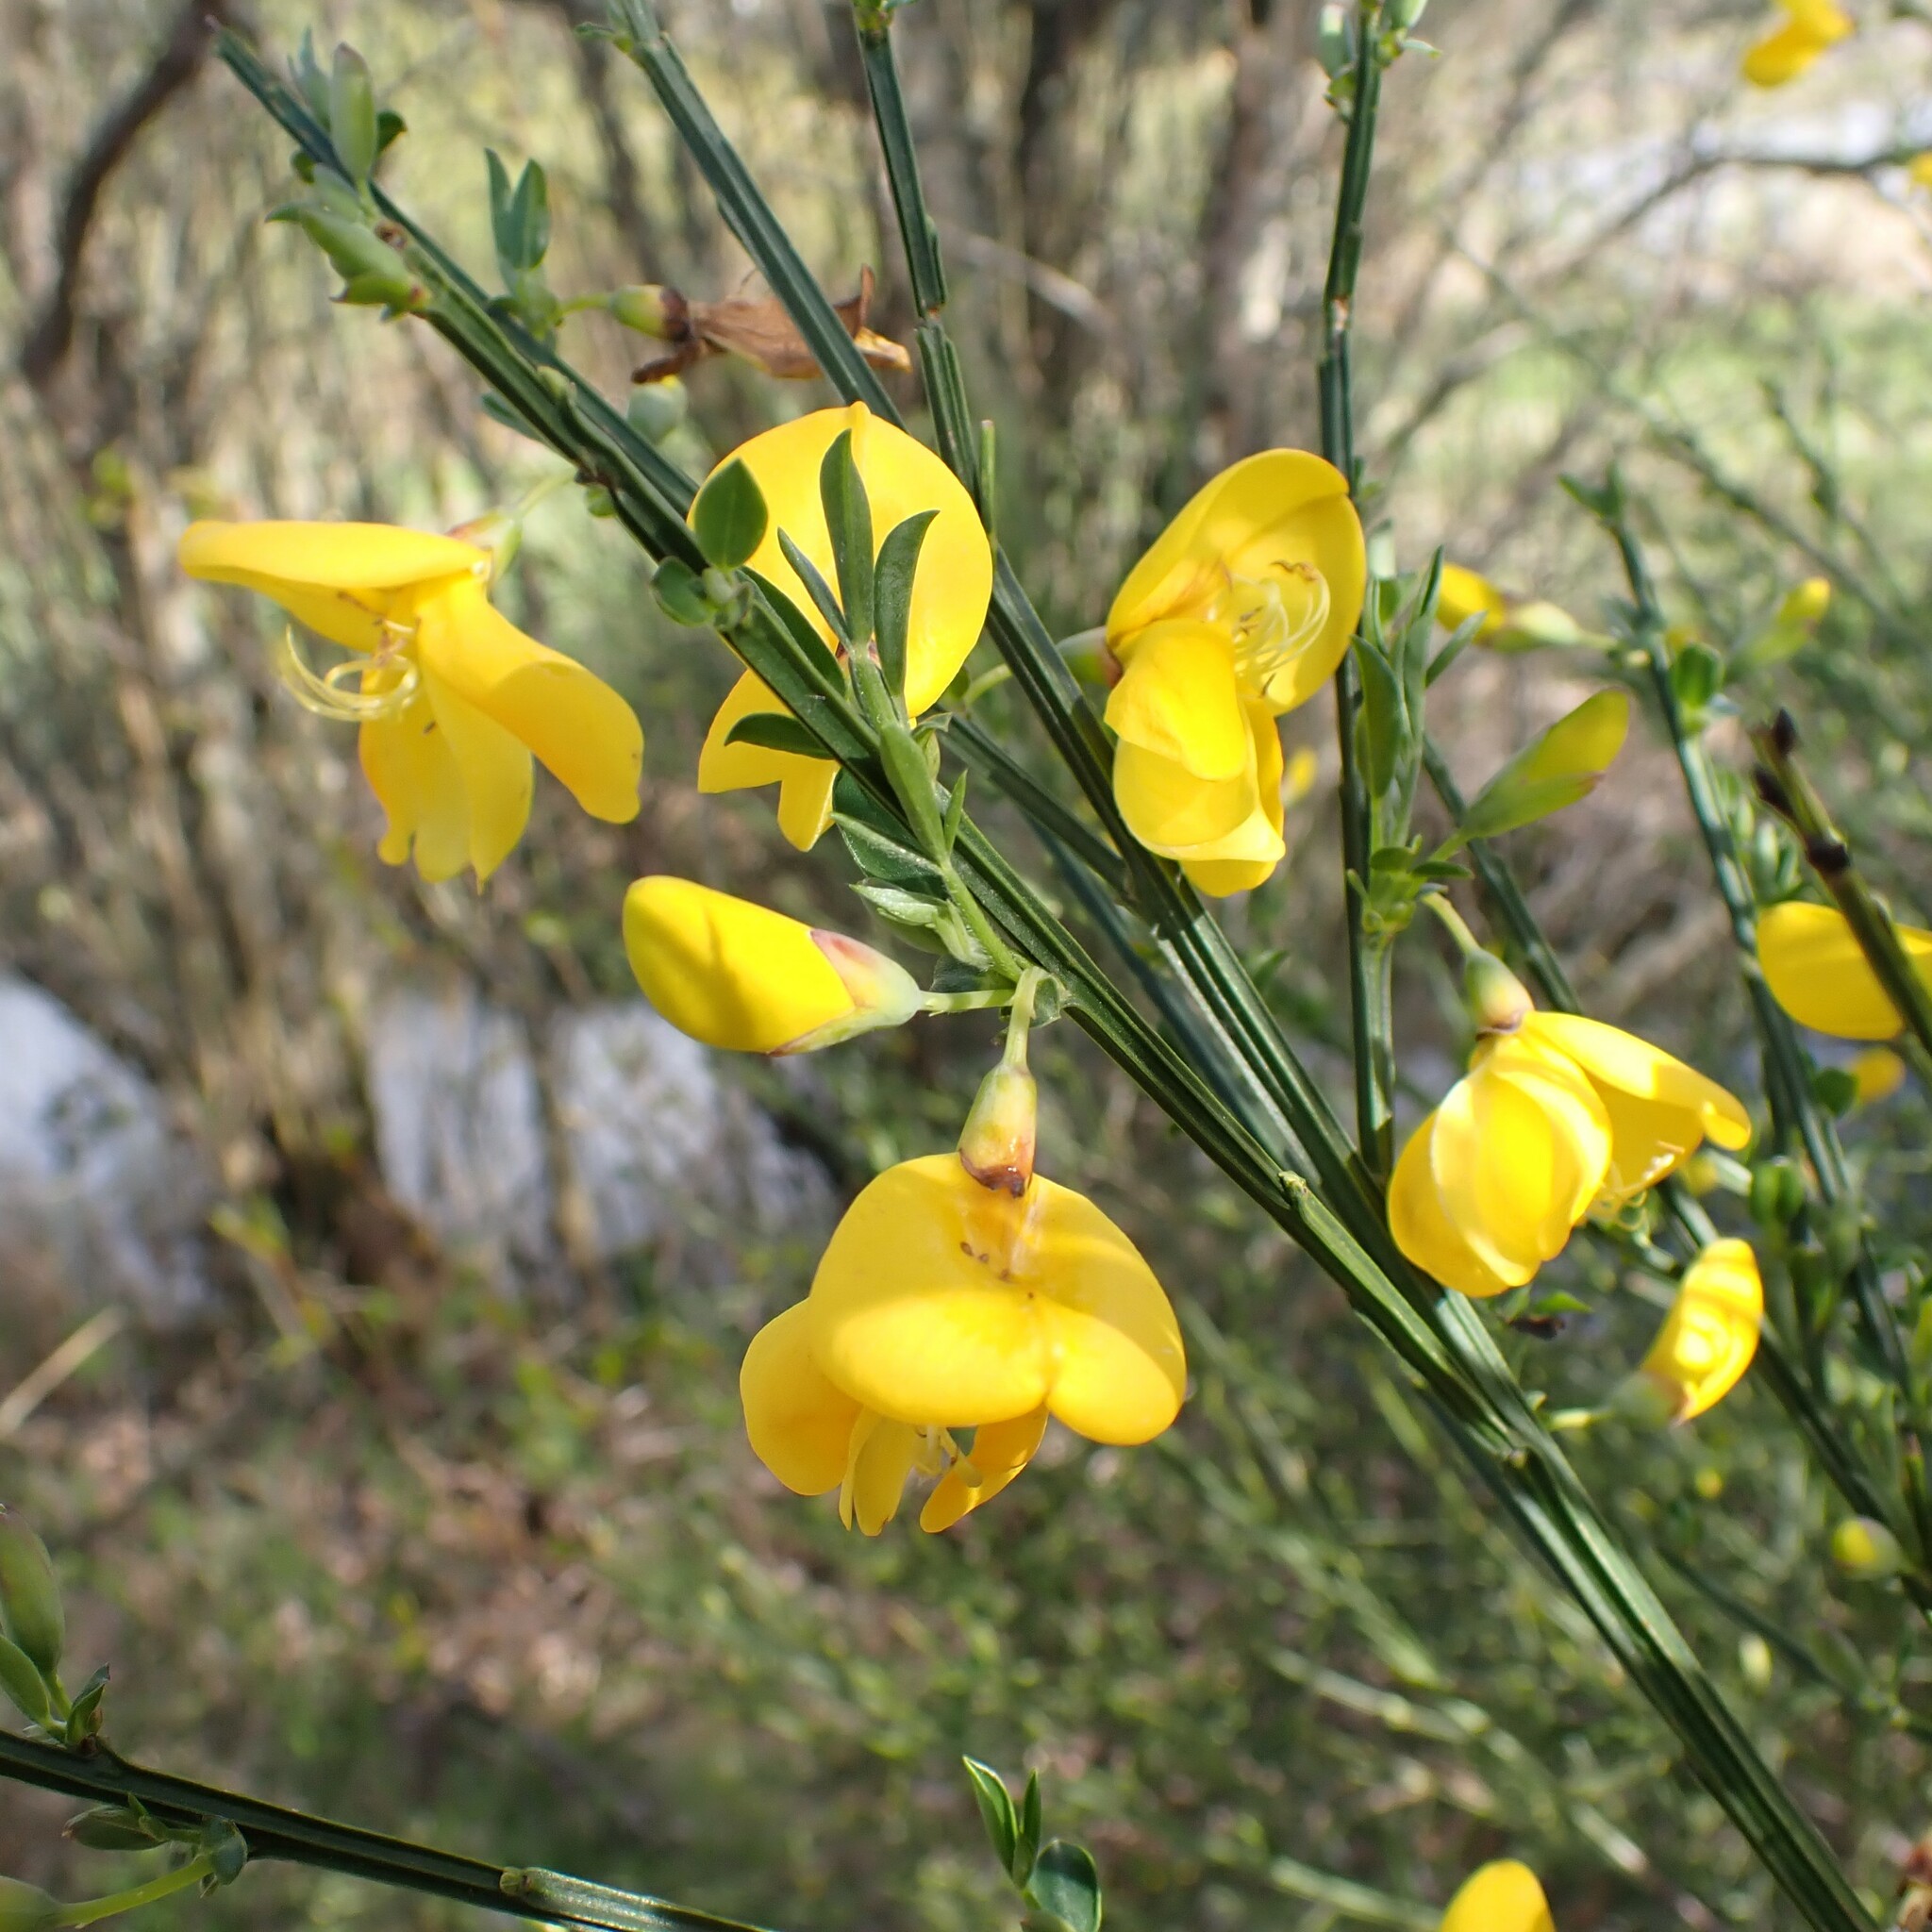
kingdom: Plantae
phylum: Tracheophyta
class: Magnoliopsida
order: Fabales
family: Fabaceae
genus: Cytisus
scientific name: Cytisus scoparius
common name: Scotch broom
